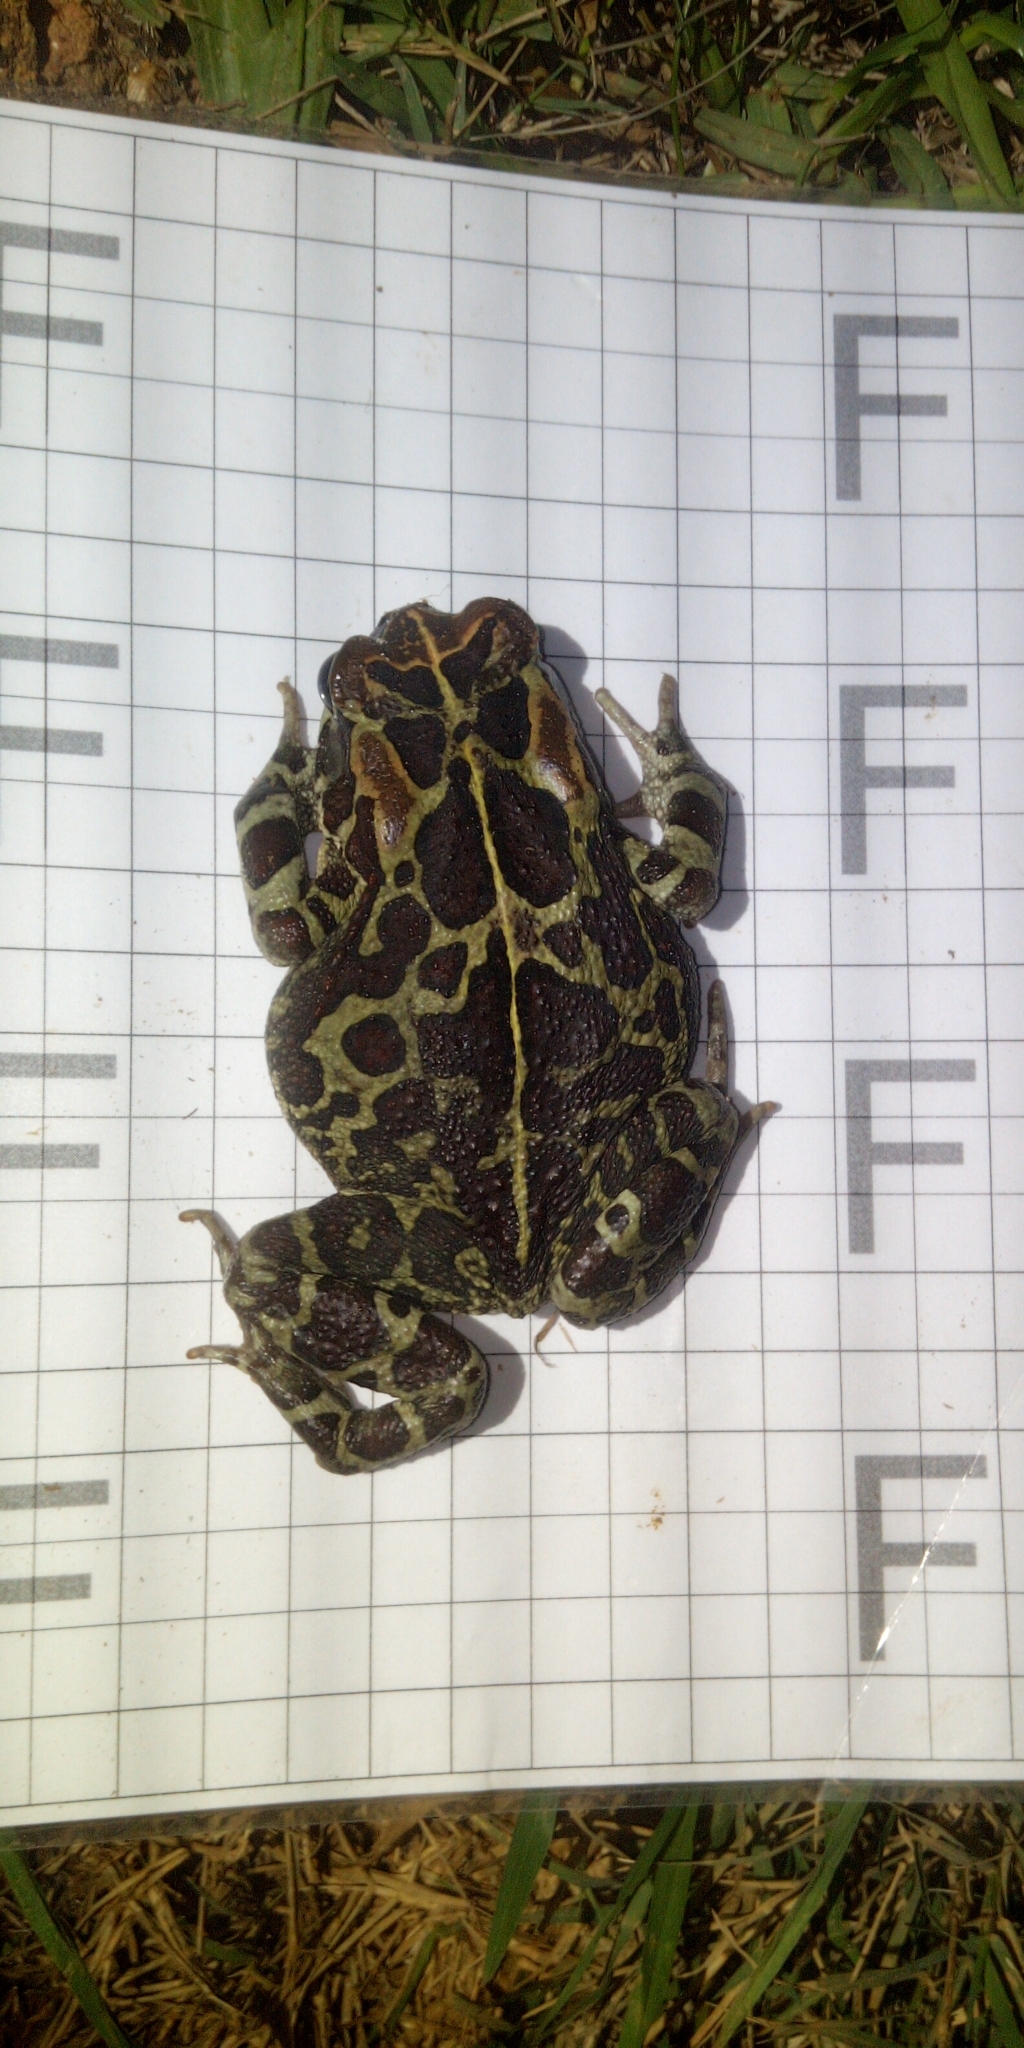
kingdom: Animalia
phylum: Chordata
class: Amphibia
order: Anura
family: Bufonidae
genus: Sclerophrys
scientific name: Sclerophrys pantherina
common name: Panther toad
